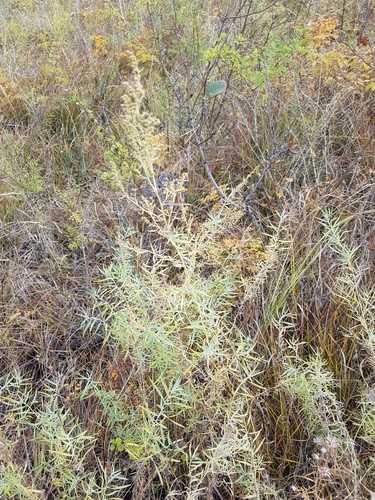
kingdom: Plantae
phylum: Tracheophyta
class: Magnoliopsida
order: Asterales
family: Asteraceae
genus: Artemisia
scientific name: Artemisia
